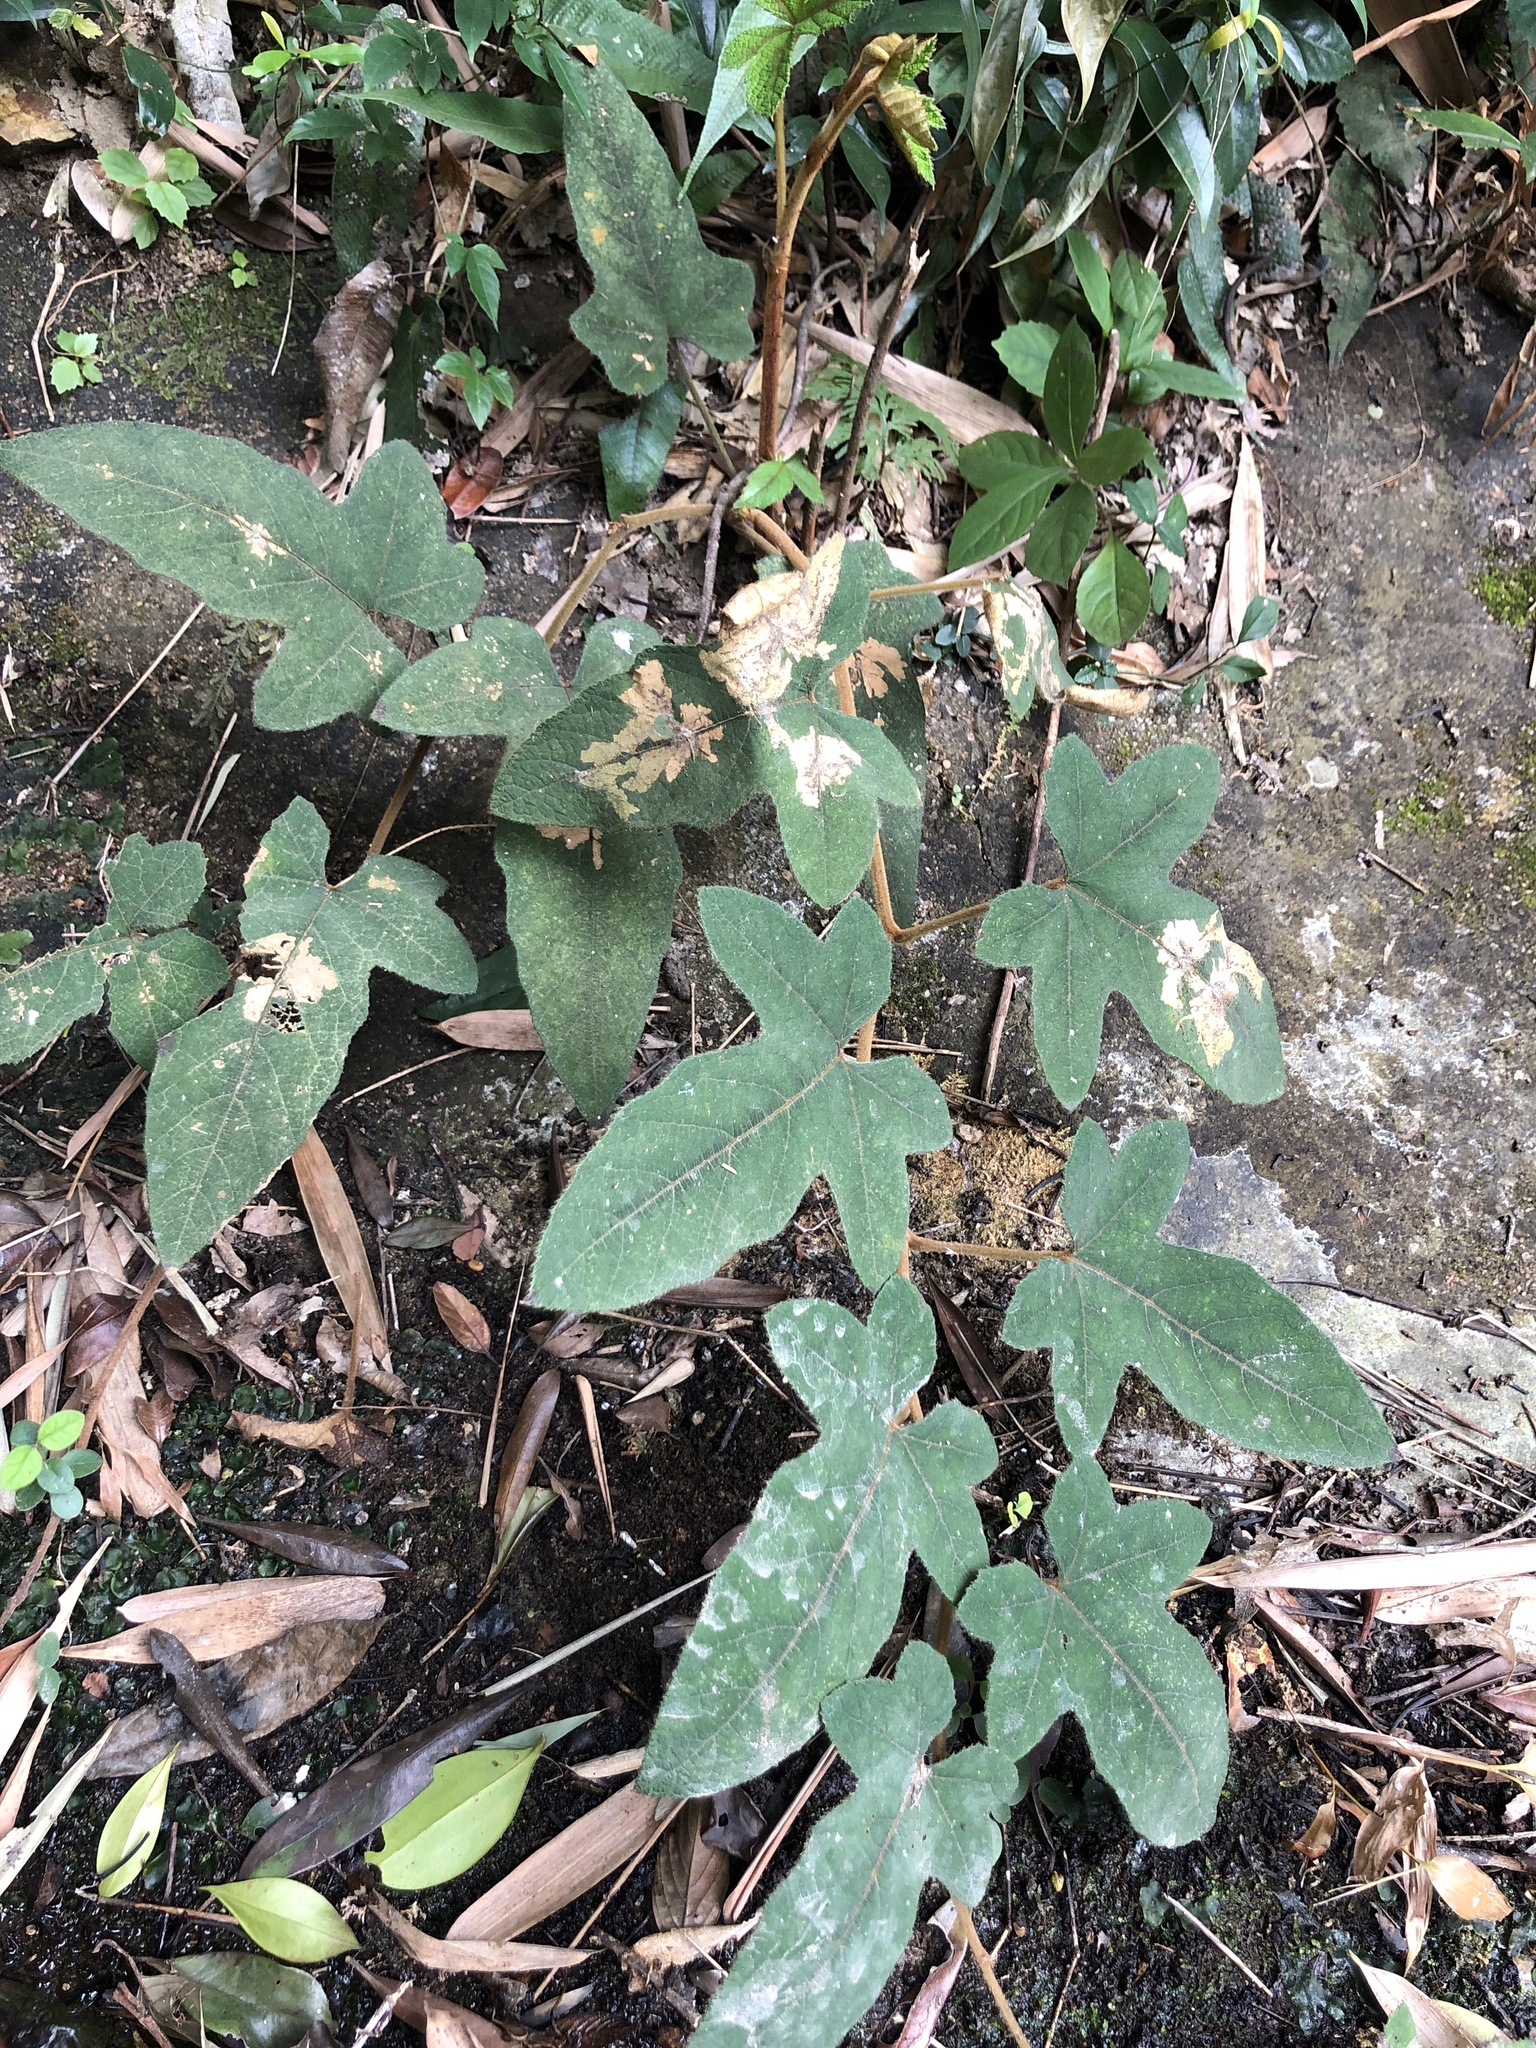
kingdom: Plantae
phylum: Tracheophyta
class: Magnoliopsida
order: Rosales
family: Rosaceae
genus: Rubus
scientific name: Rubus reflexus
